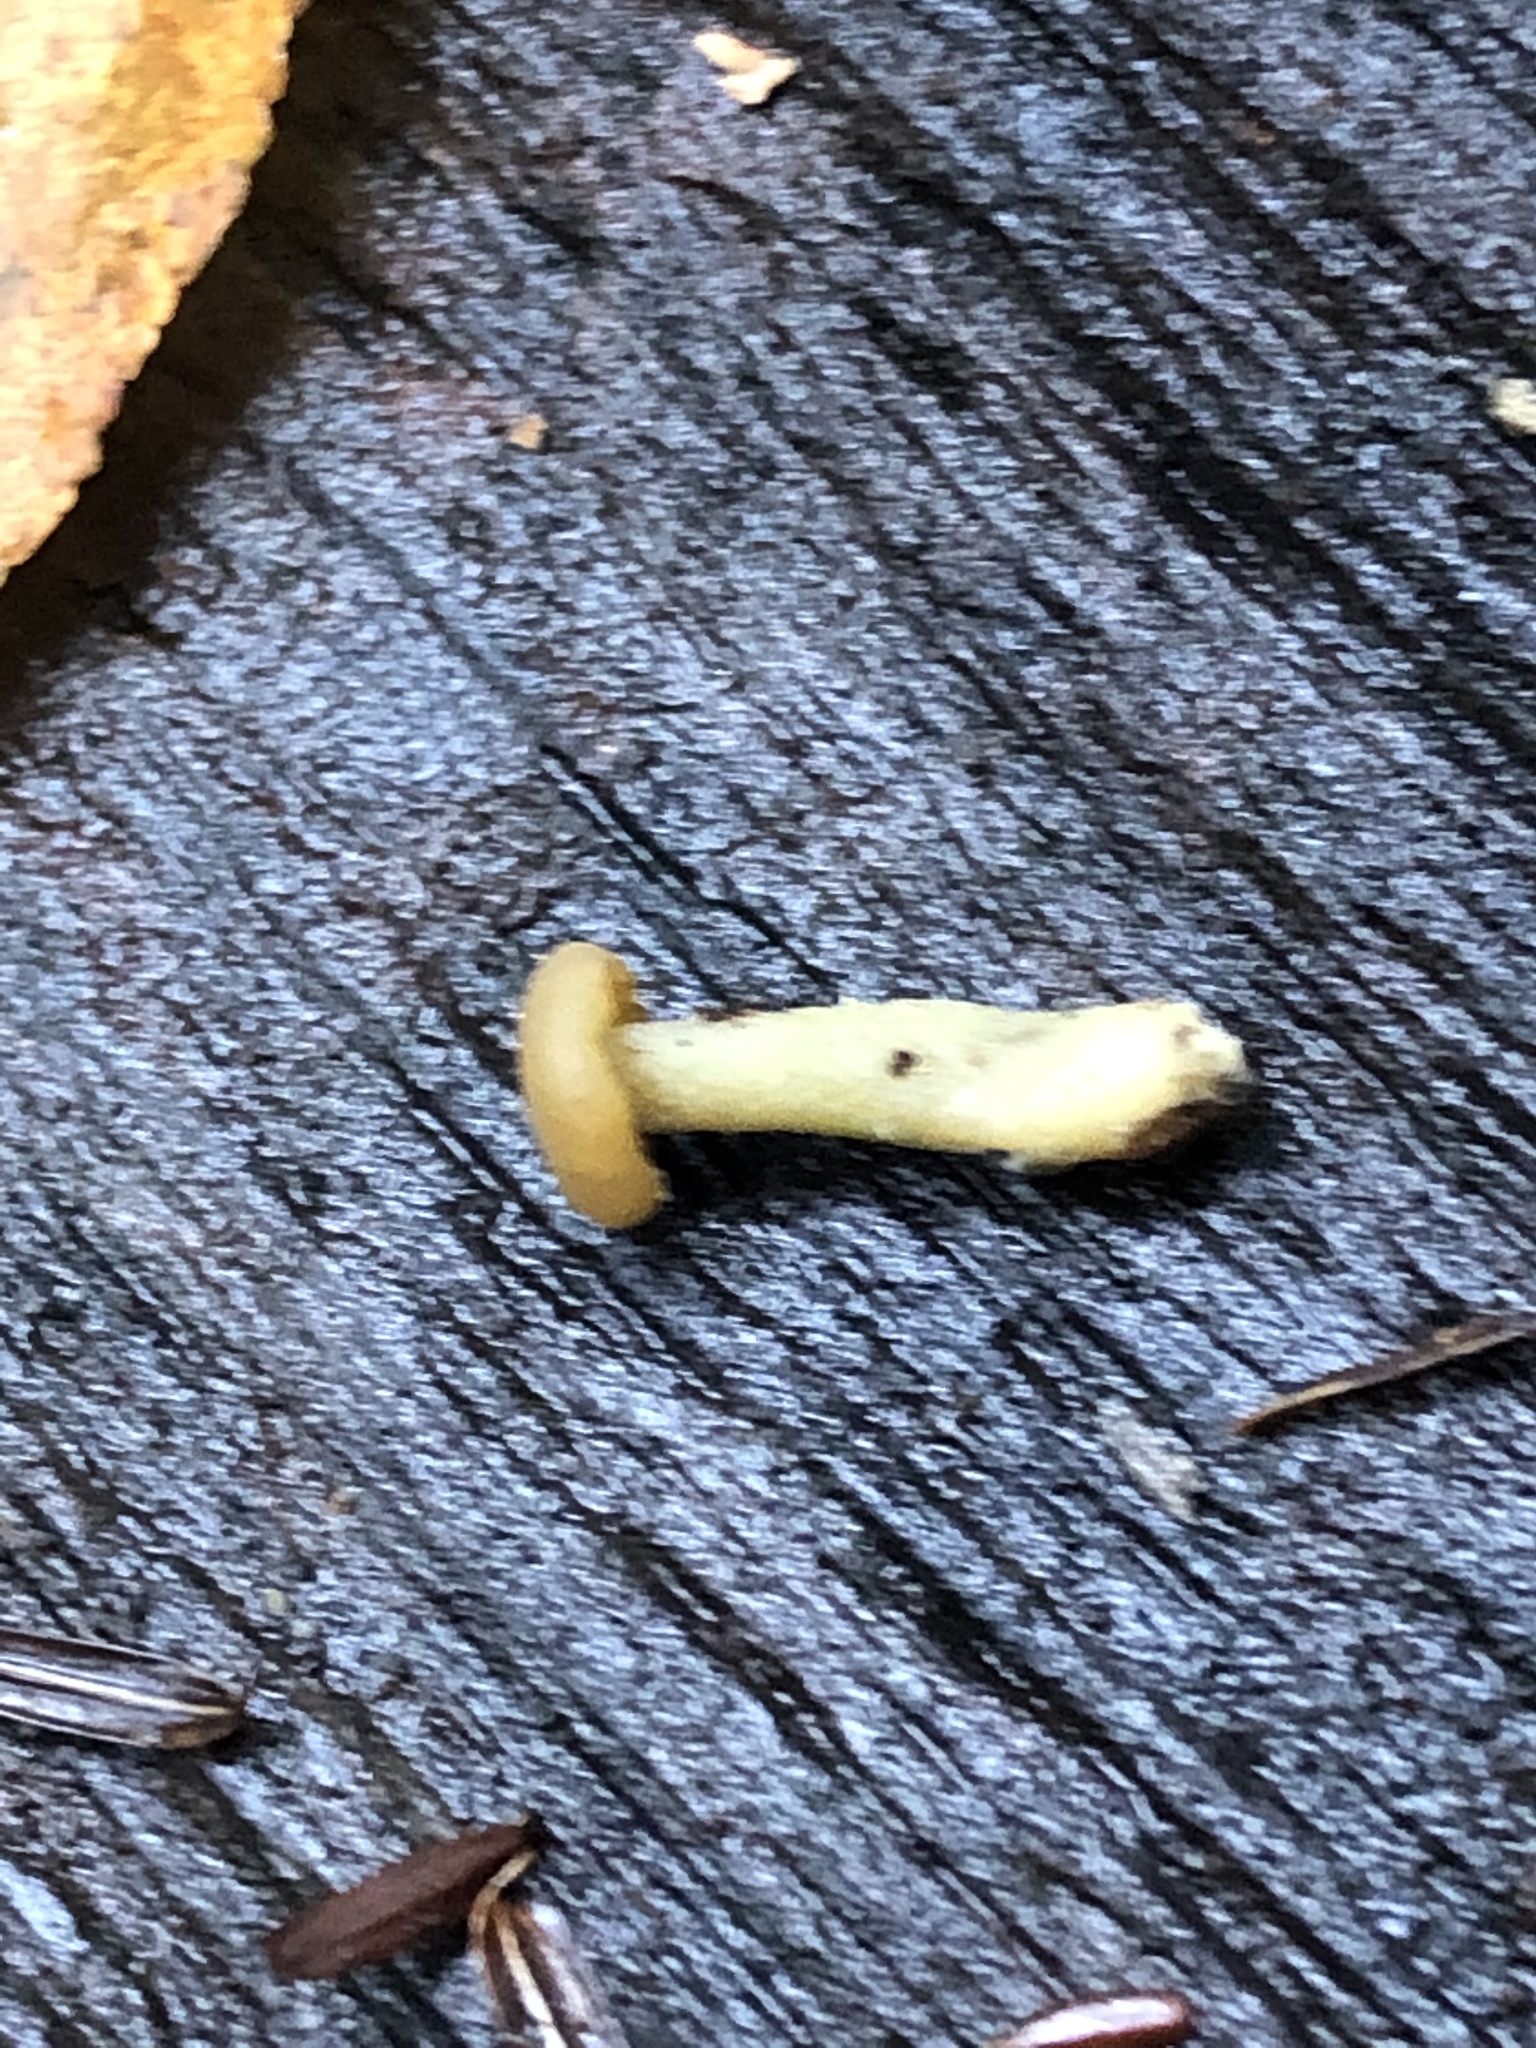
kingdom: Fungi
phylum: Ascomycota
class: Leotiomycetes
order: Leotiales
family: Leotiaceae
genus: Leotia
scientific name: Leotia lubrica
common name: Jellybaby
